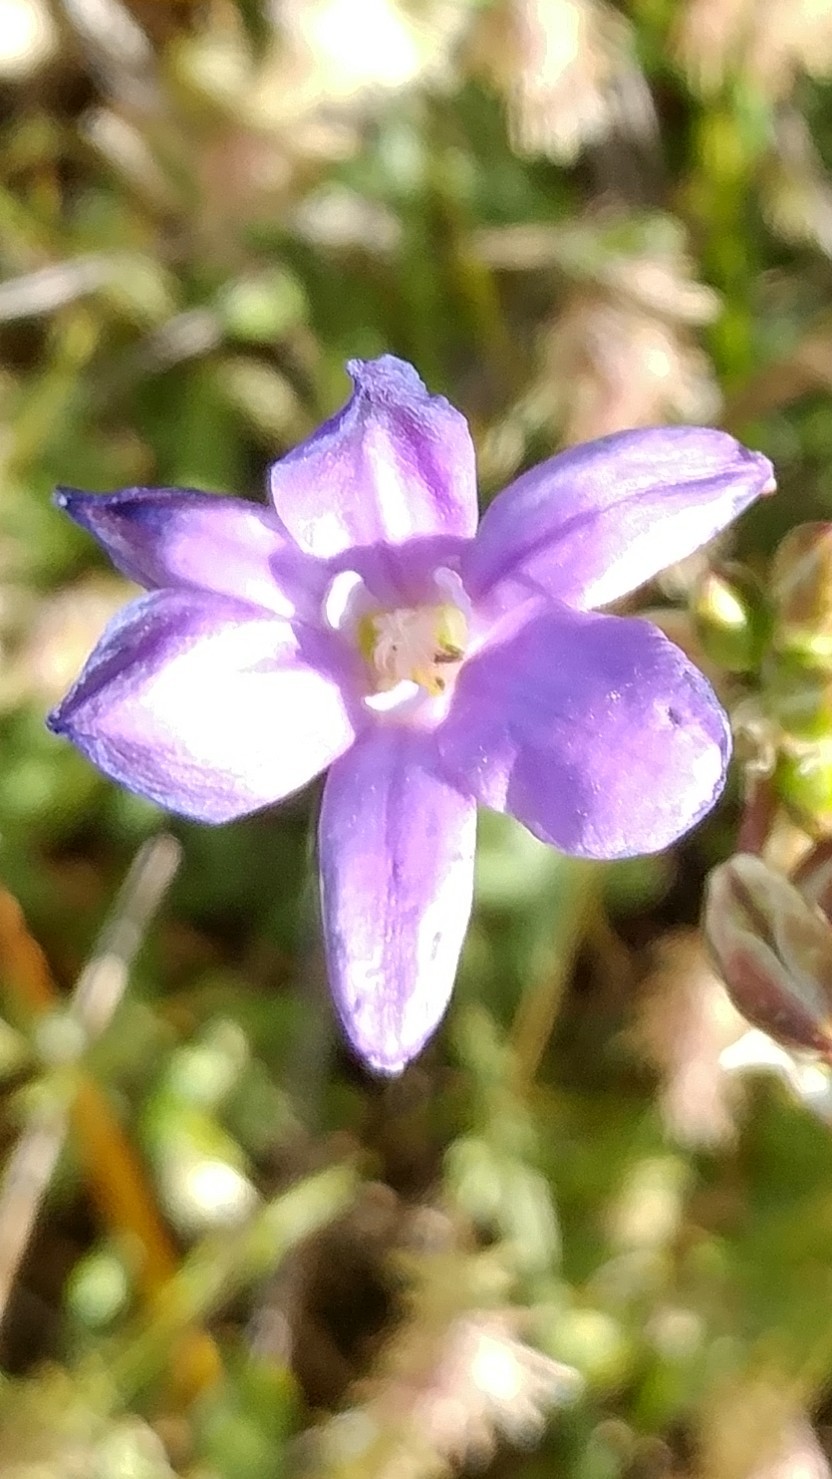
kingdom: Plantae
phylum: Tracheophyta
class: Liliopsida
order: Asparagales
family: Asparagaceae
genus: Brodiaea
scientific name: Brodiaea kinkiensis
